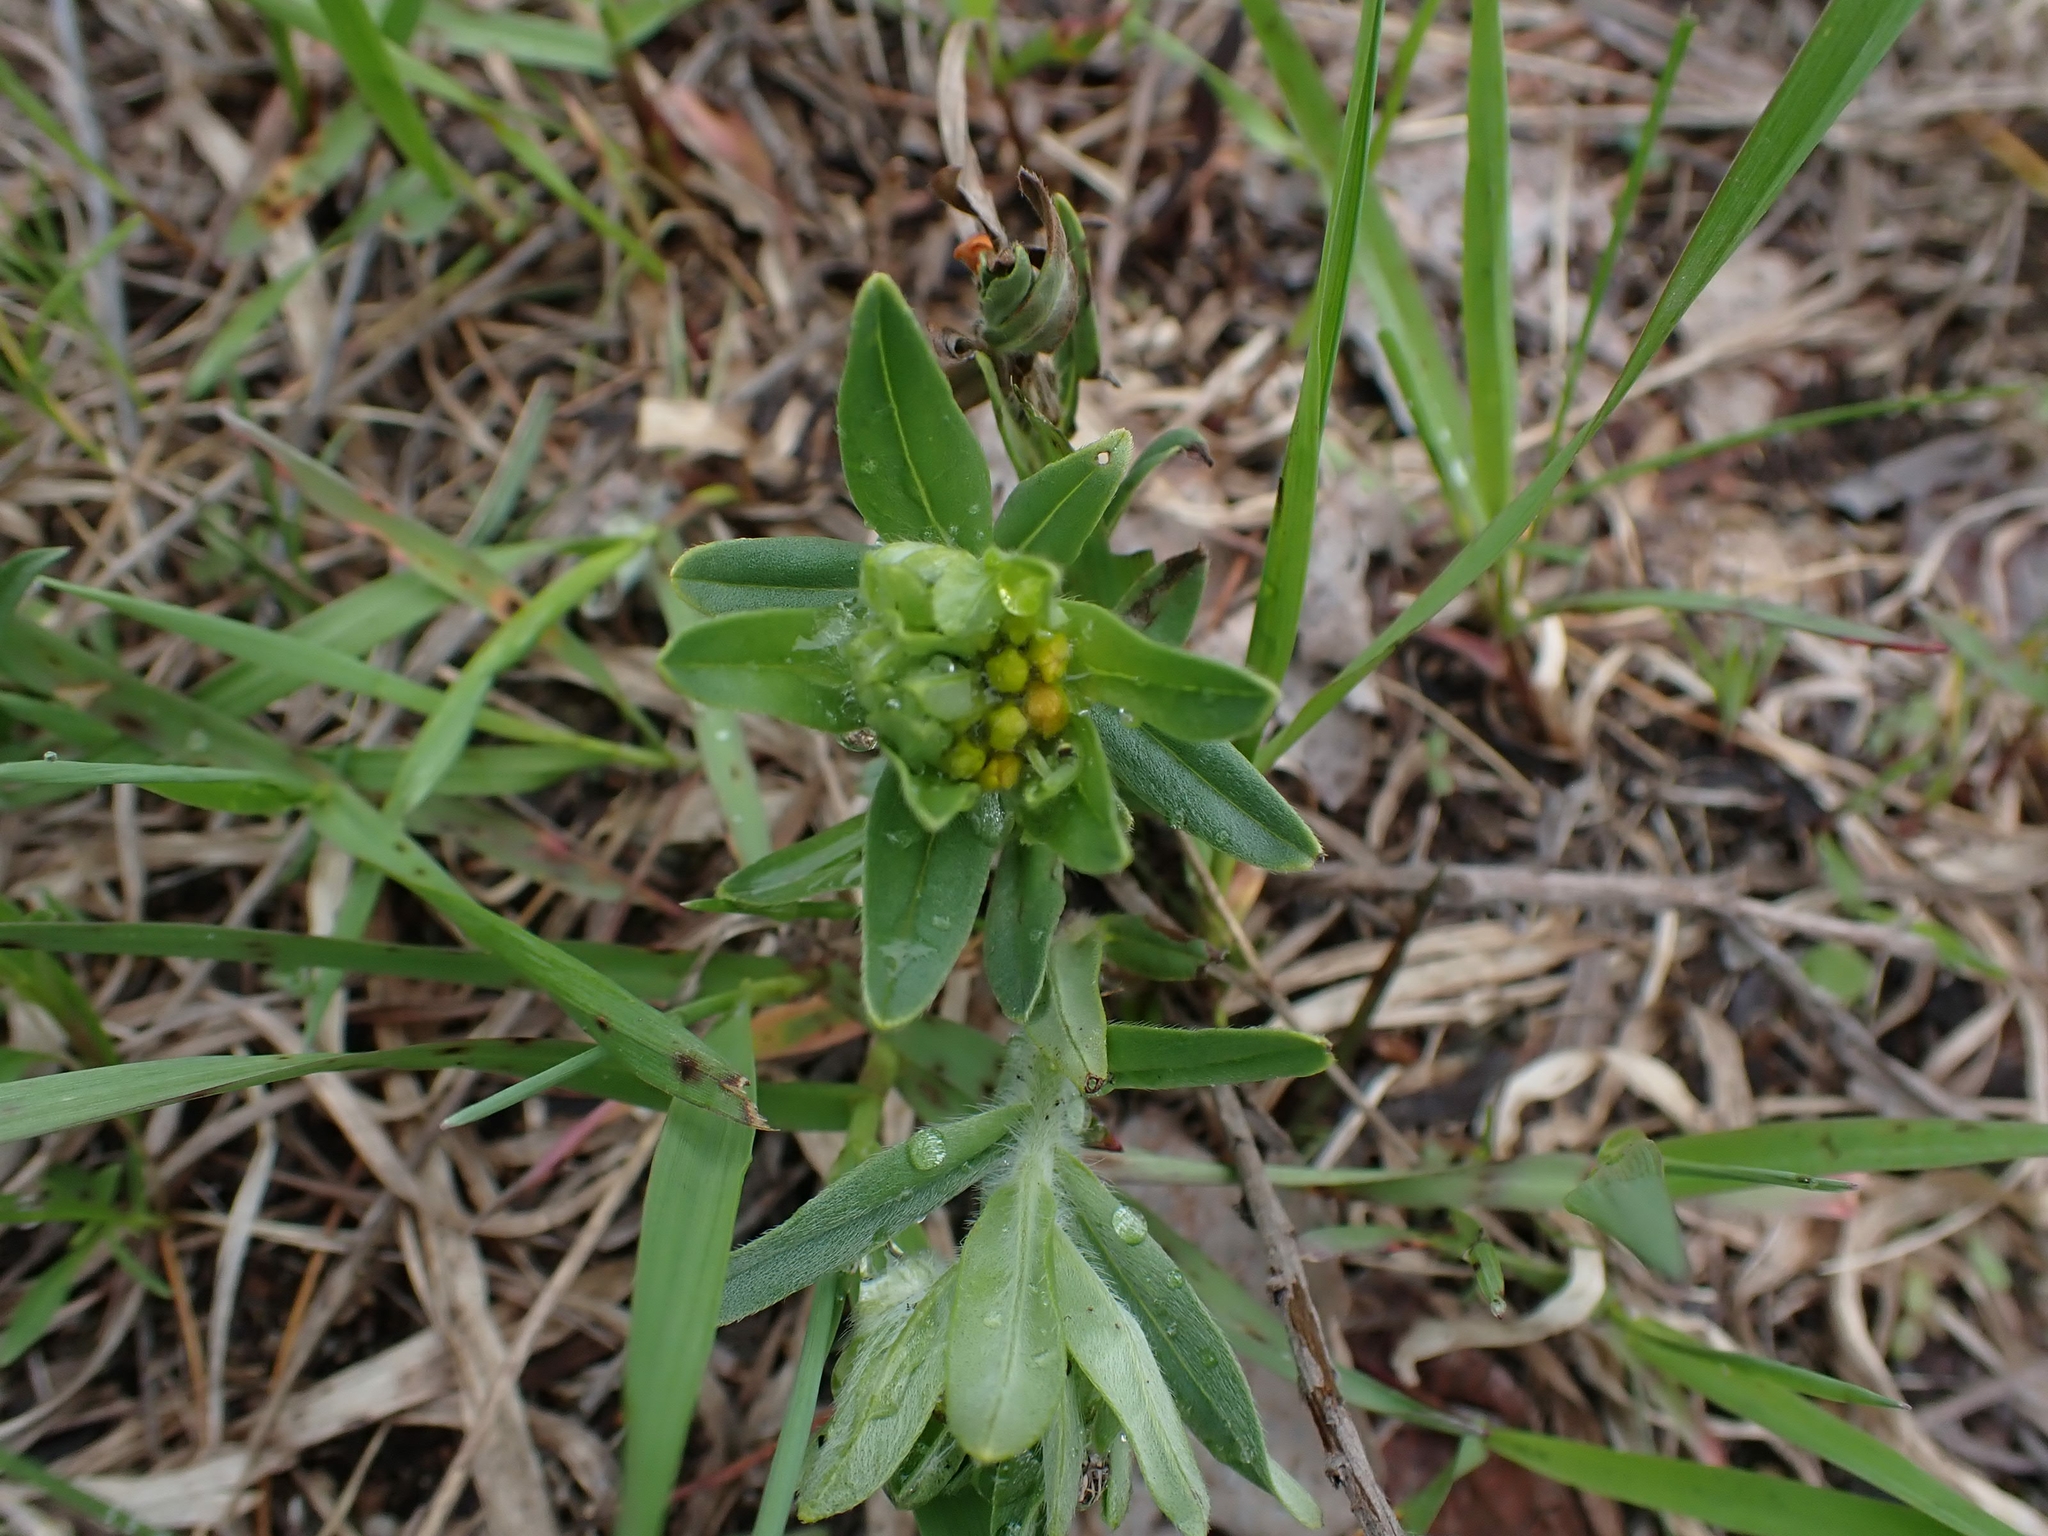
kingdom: Plantae
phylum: Tracheophyta
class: Magnoliopsida
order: Boraginales
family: Boraginaceae
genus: Lithospermum
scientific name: Lithospermum canescens
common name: Hoary puccoon
